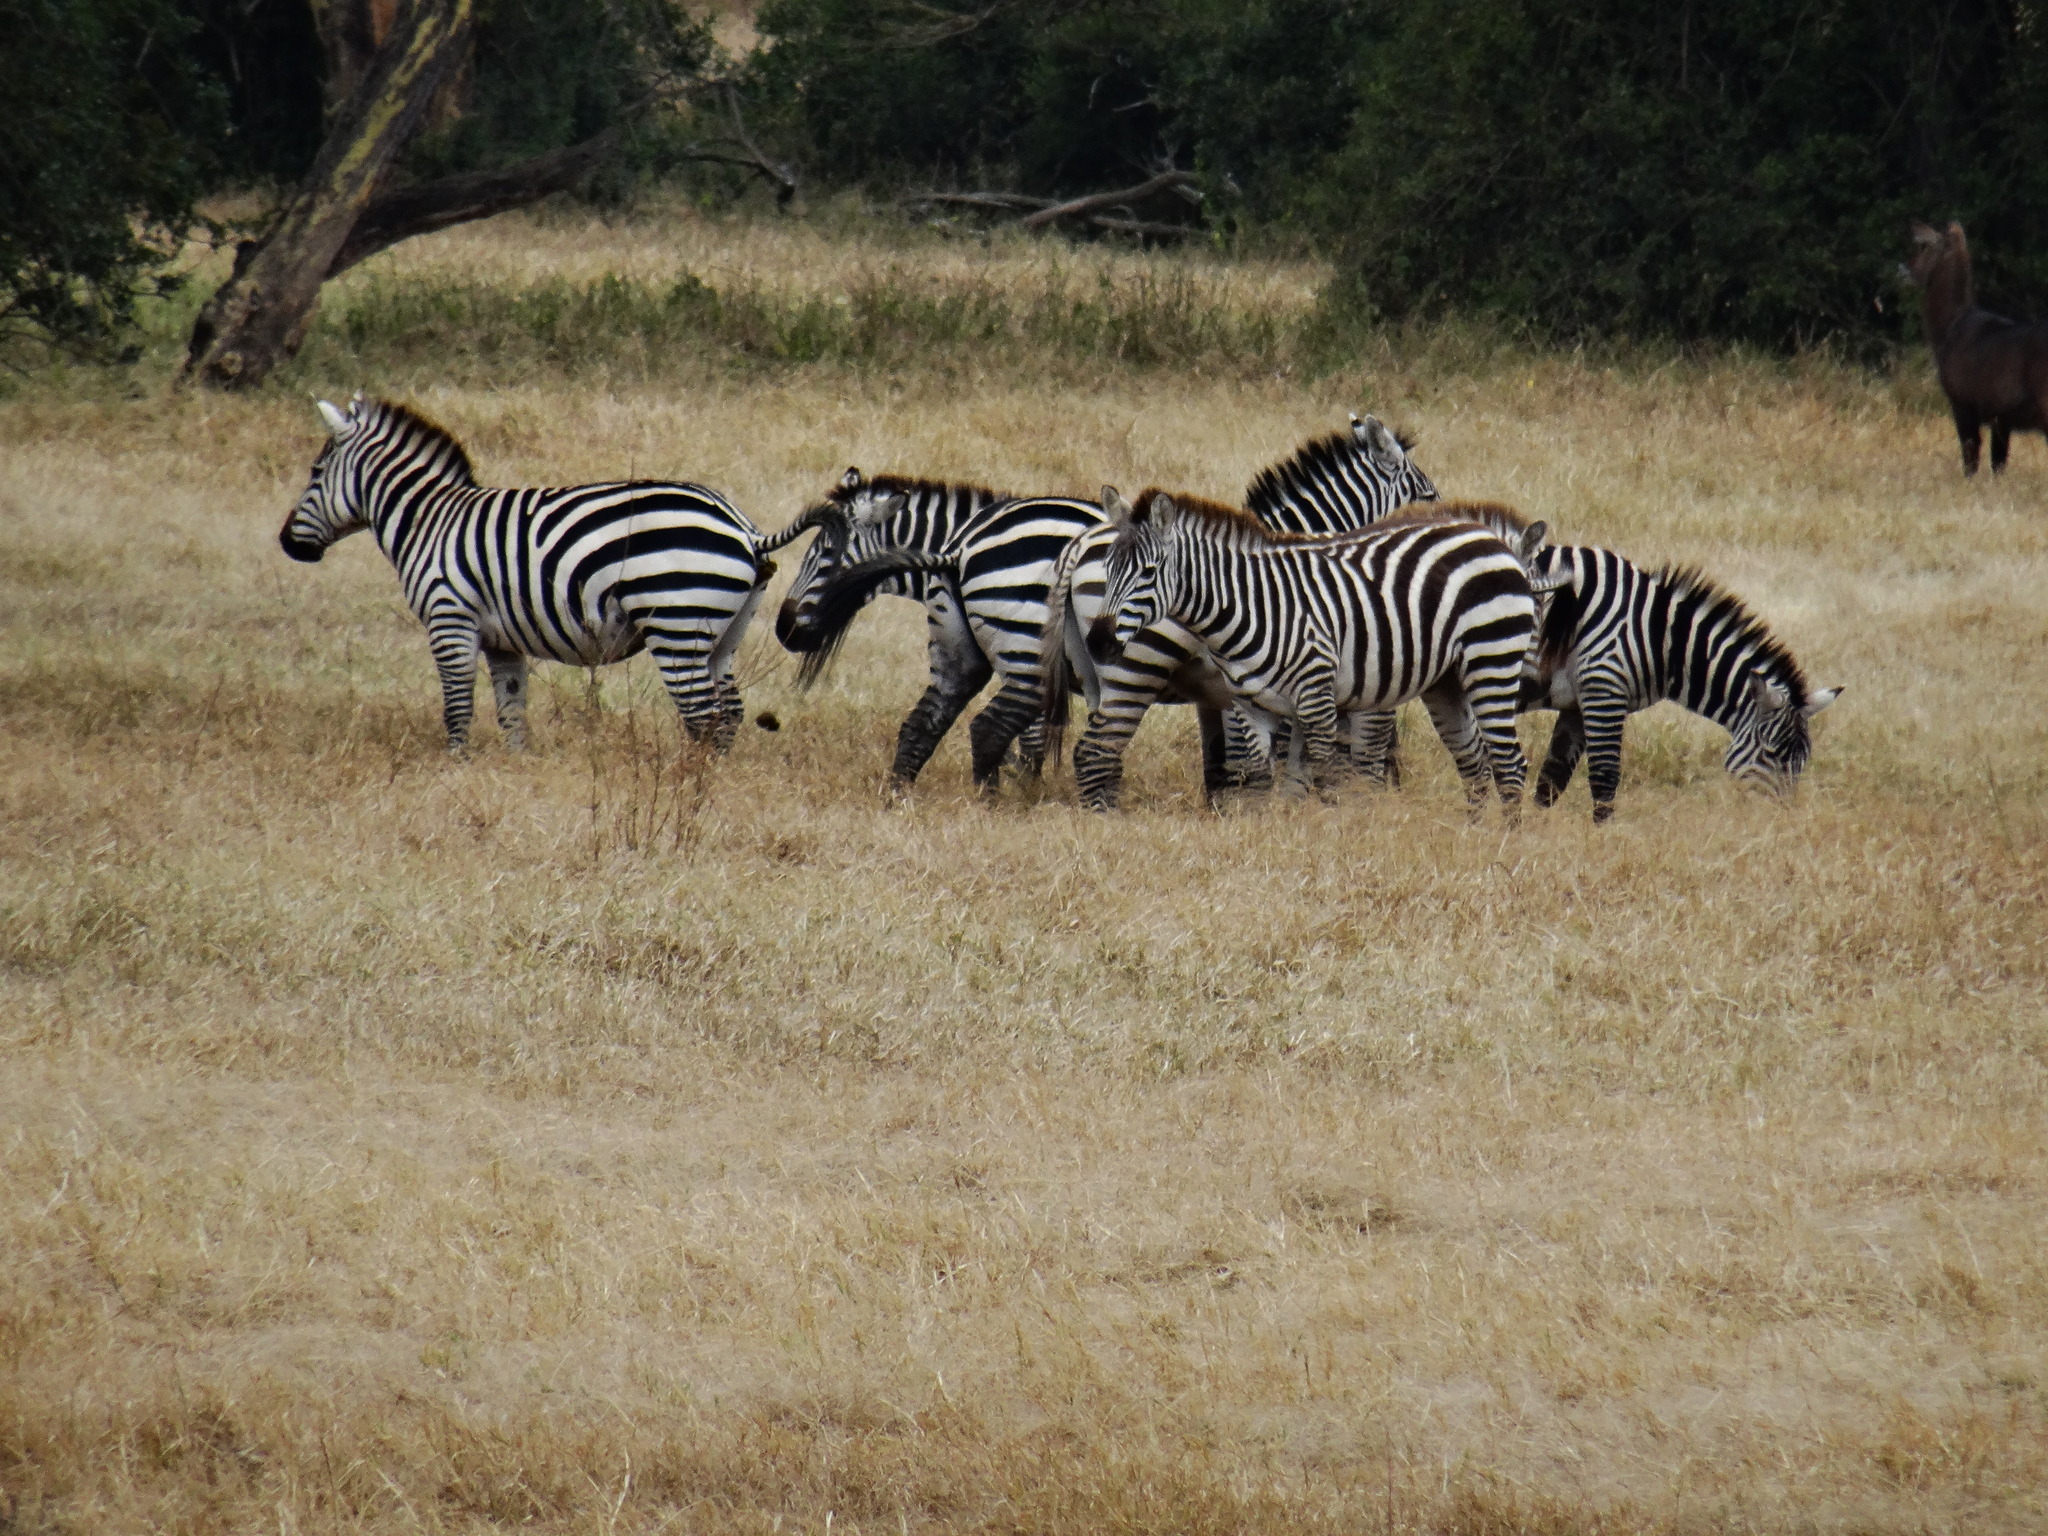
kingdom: Animalia
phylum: Chordata
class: Mammalia
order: Perissodactyla
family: Equidae
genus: Equus
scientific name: Equus quagga
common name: Plains zebra
